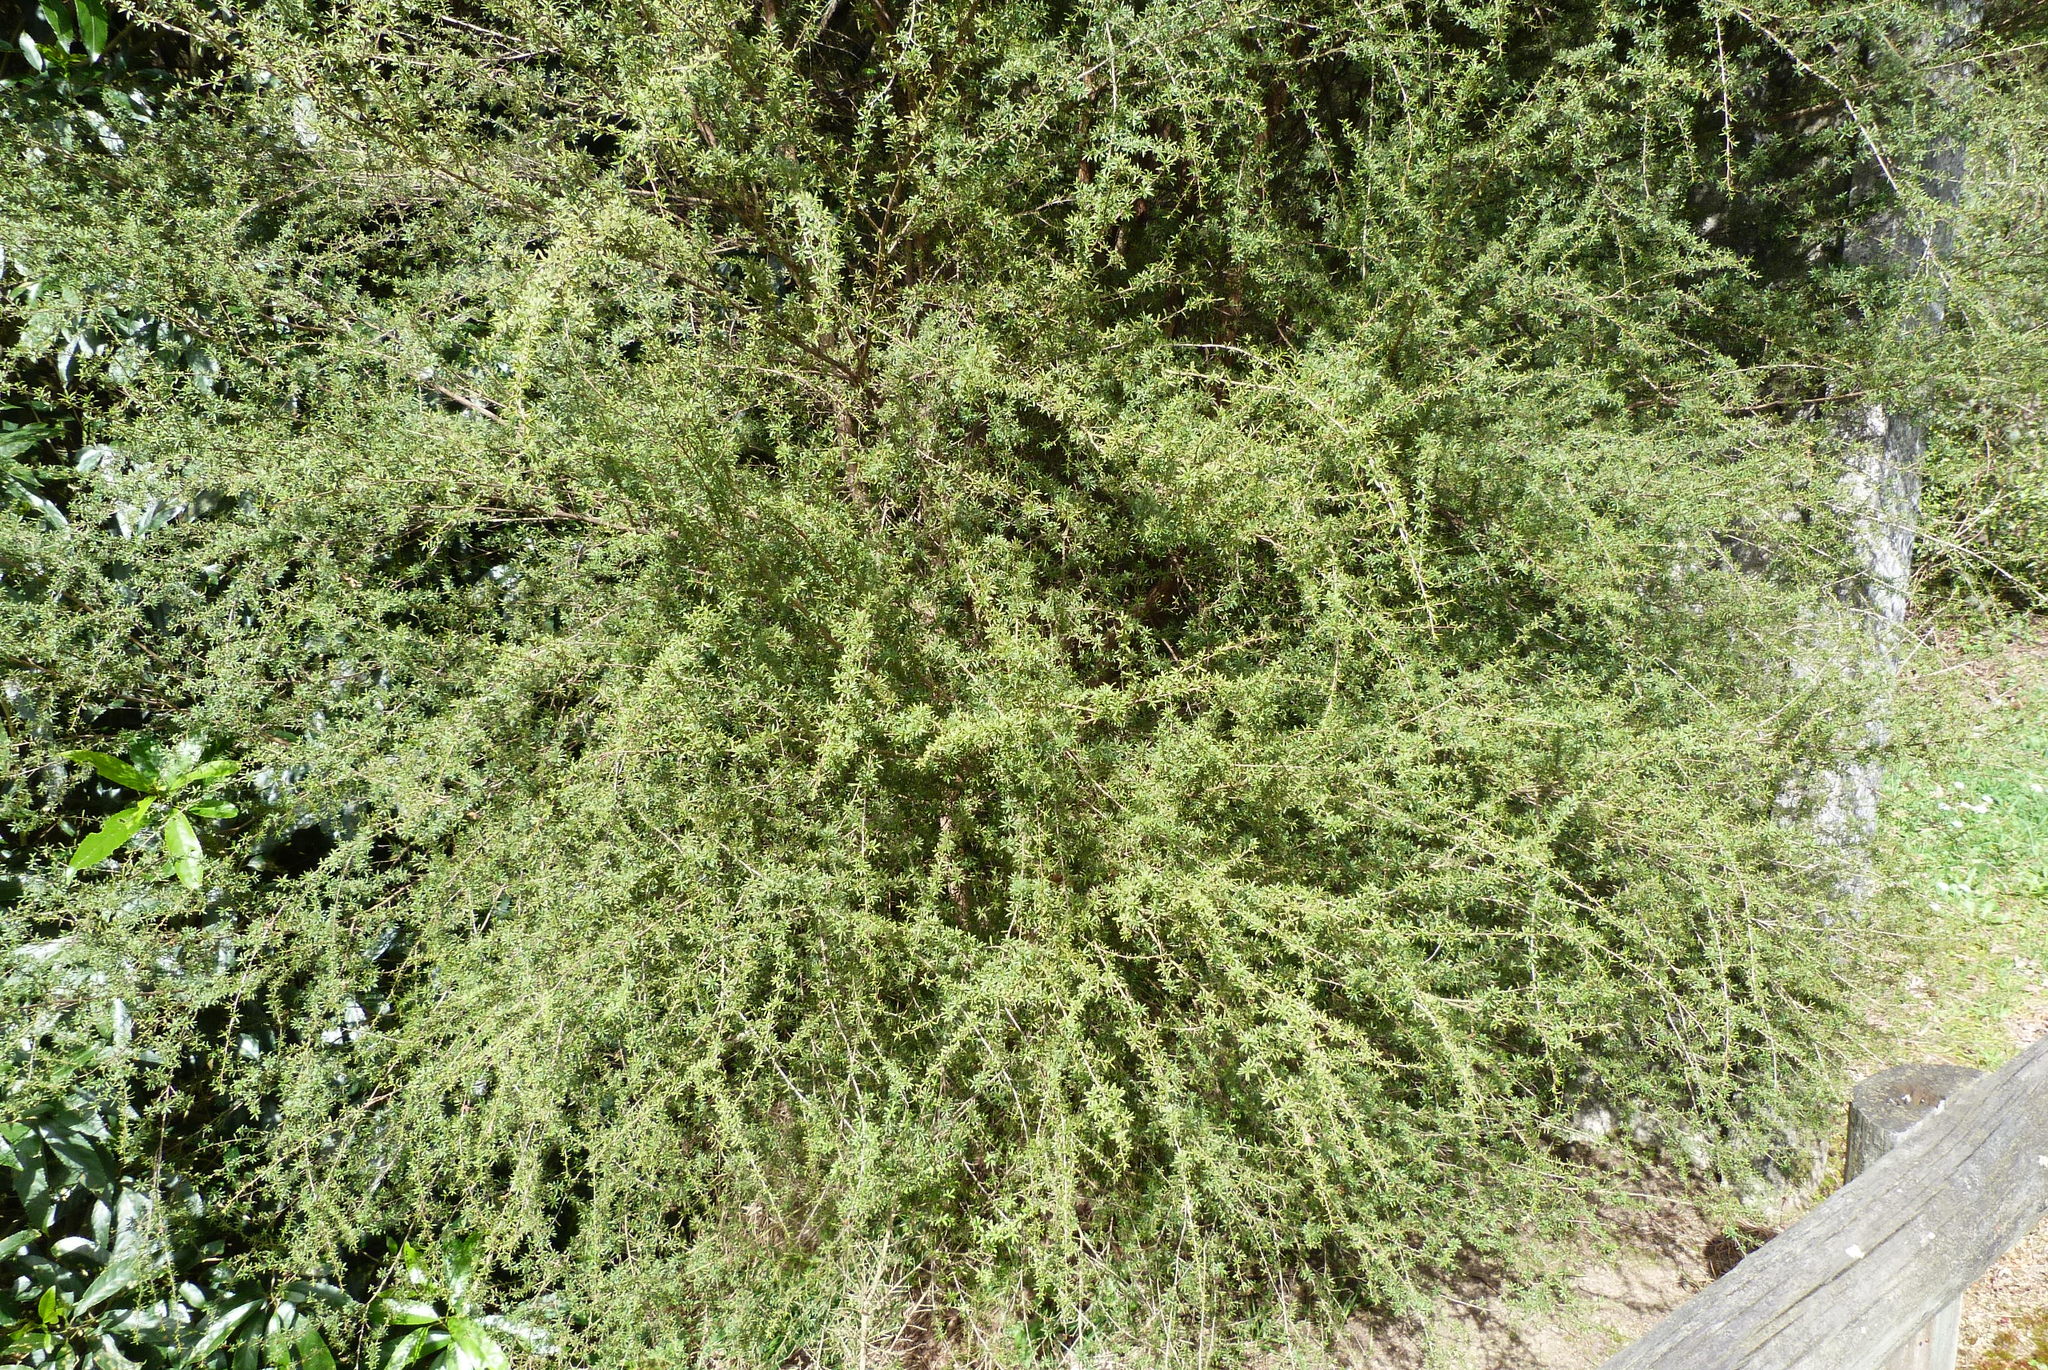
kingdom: Plantae
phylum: Tracheophyta
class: Magnoliopsida
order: Myrtales
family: Myrtaceae
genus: Kunzea
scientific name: Kunzea robusta
